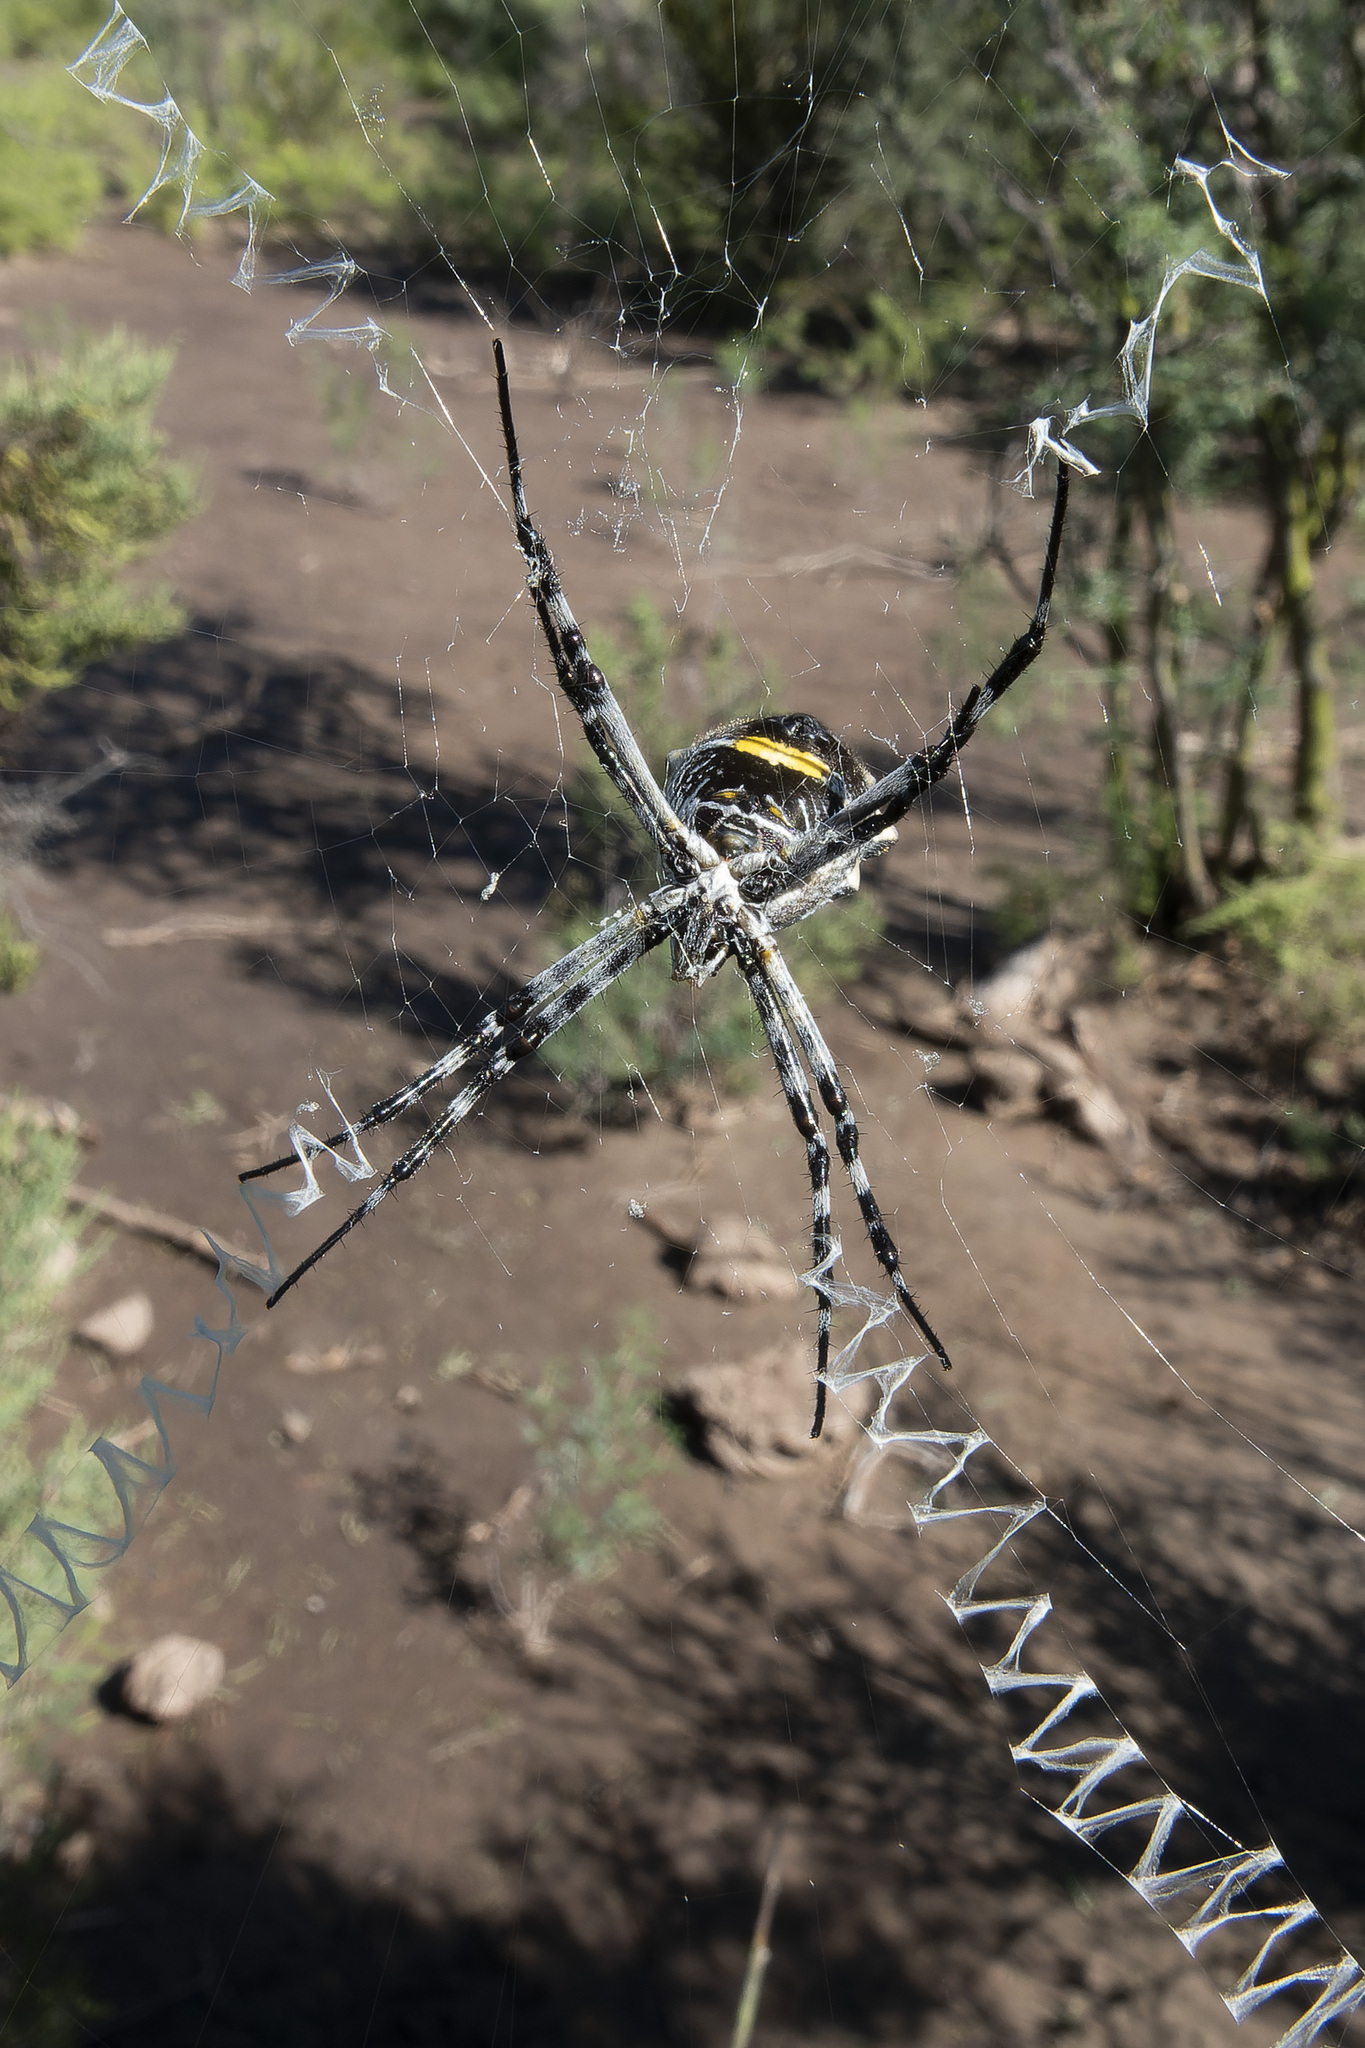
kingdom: Animalia
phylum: Arthropoda
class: Arachnida
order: Araneae
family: Araneidae
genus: Argiope
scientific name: Argiope argentata
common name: Orb weavers
